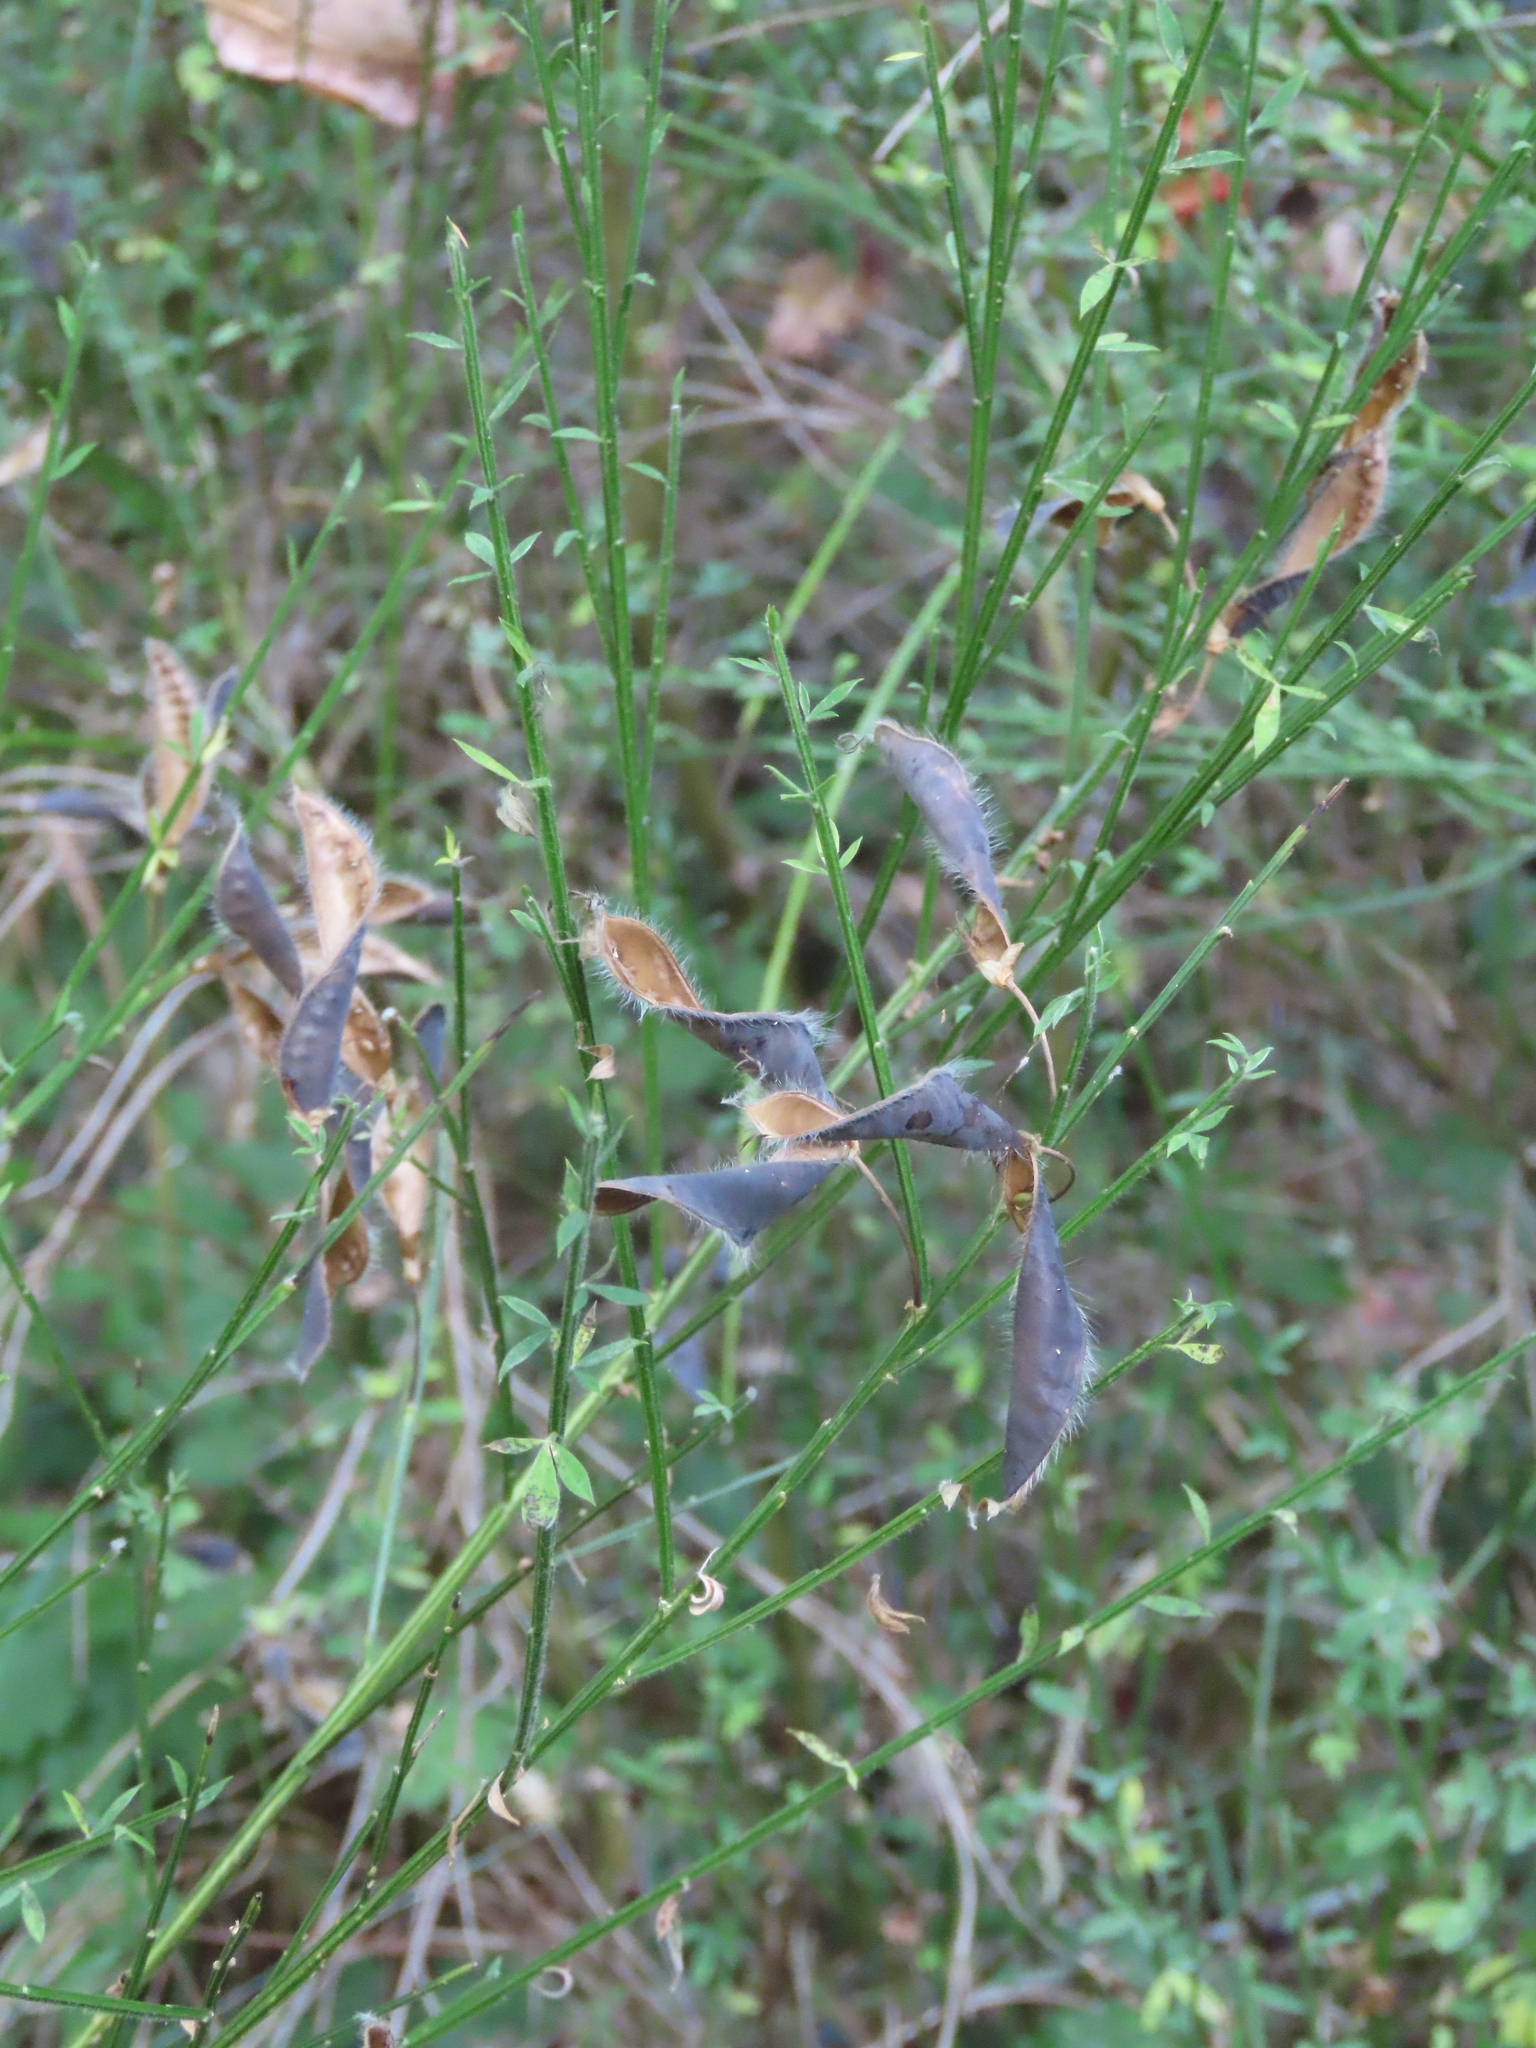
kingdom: Plantae
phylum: Tracheophyta
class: Magnoliopsida
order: Fabales
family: Fabaceae
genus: Cytisus
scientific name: Cytisus scoparius
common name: Scotch broom
